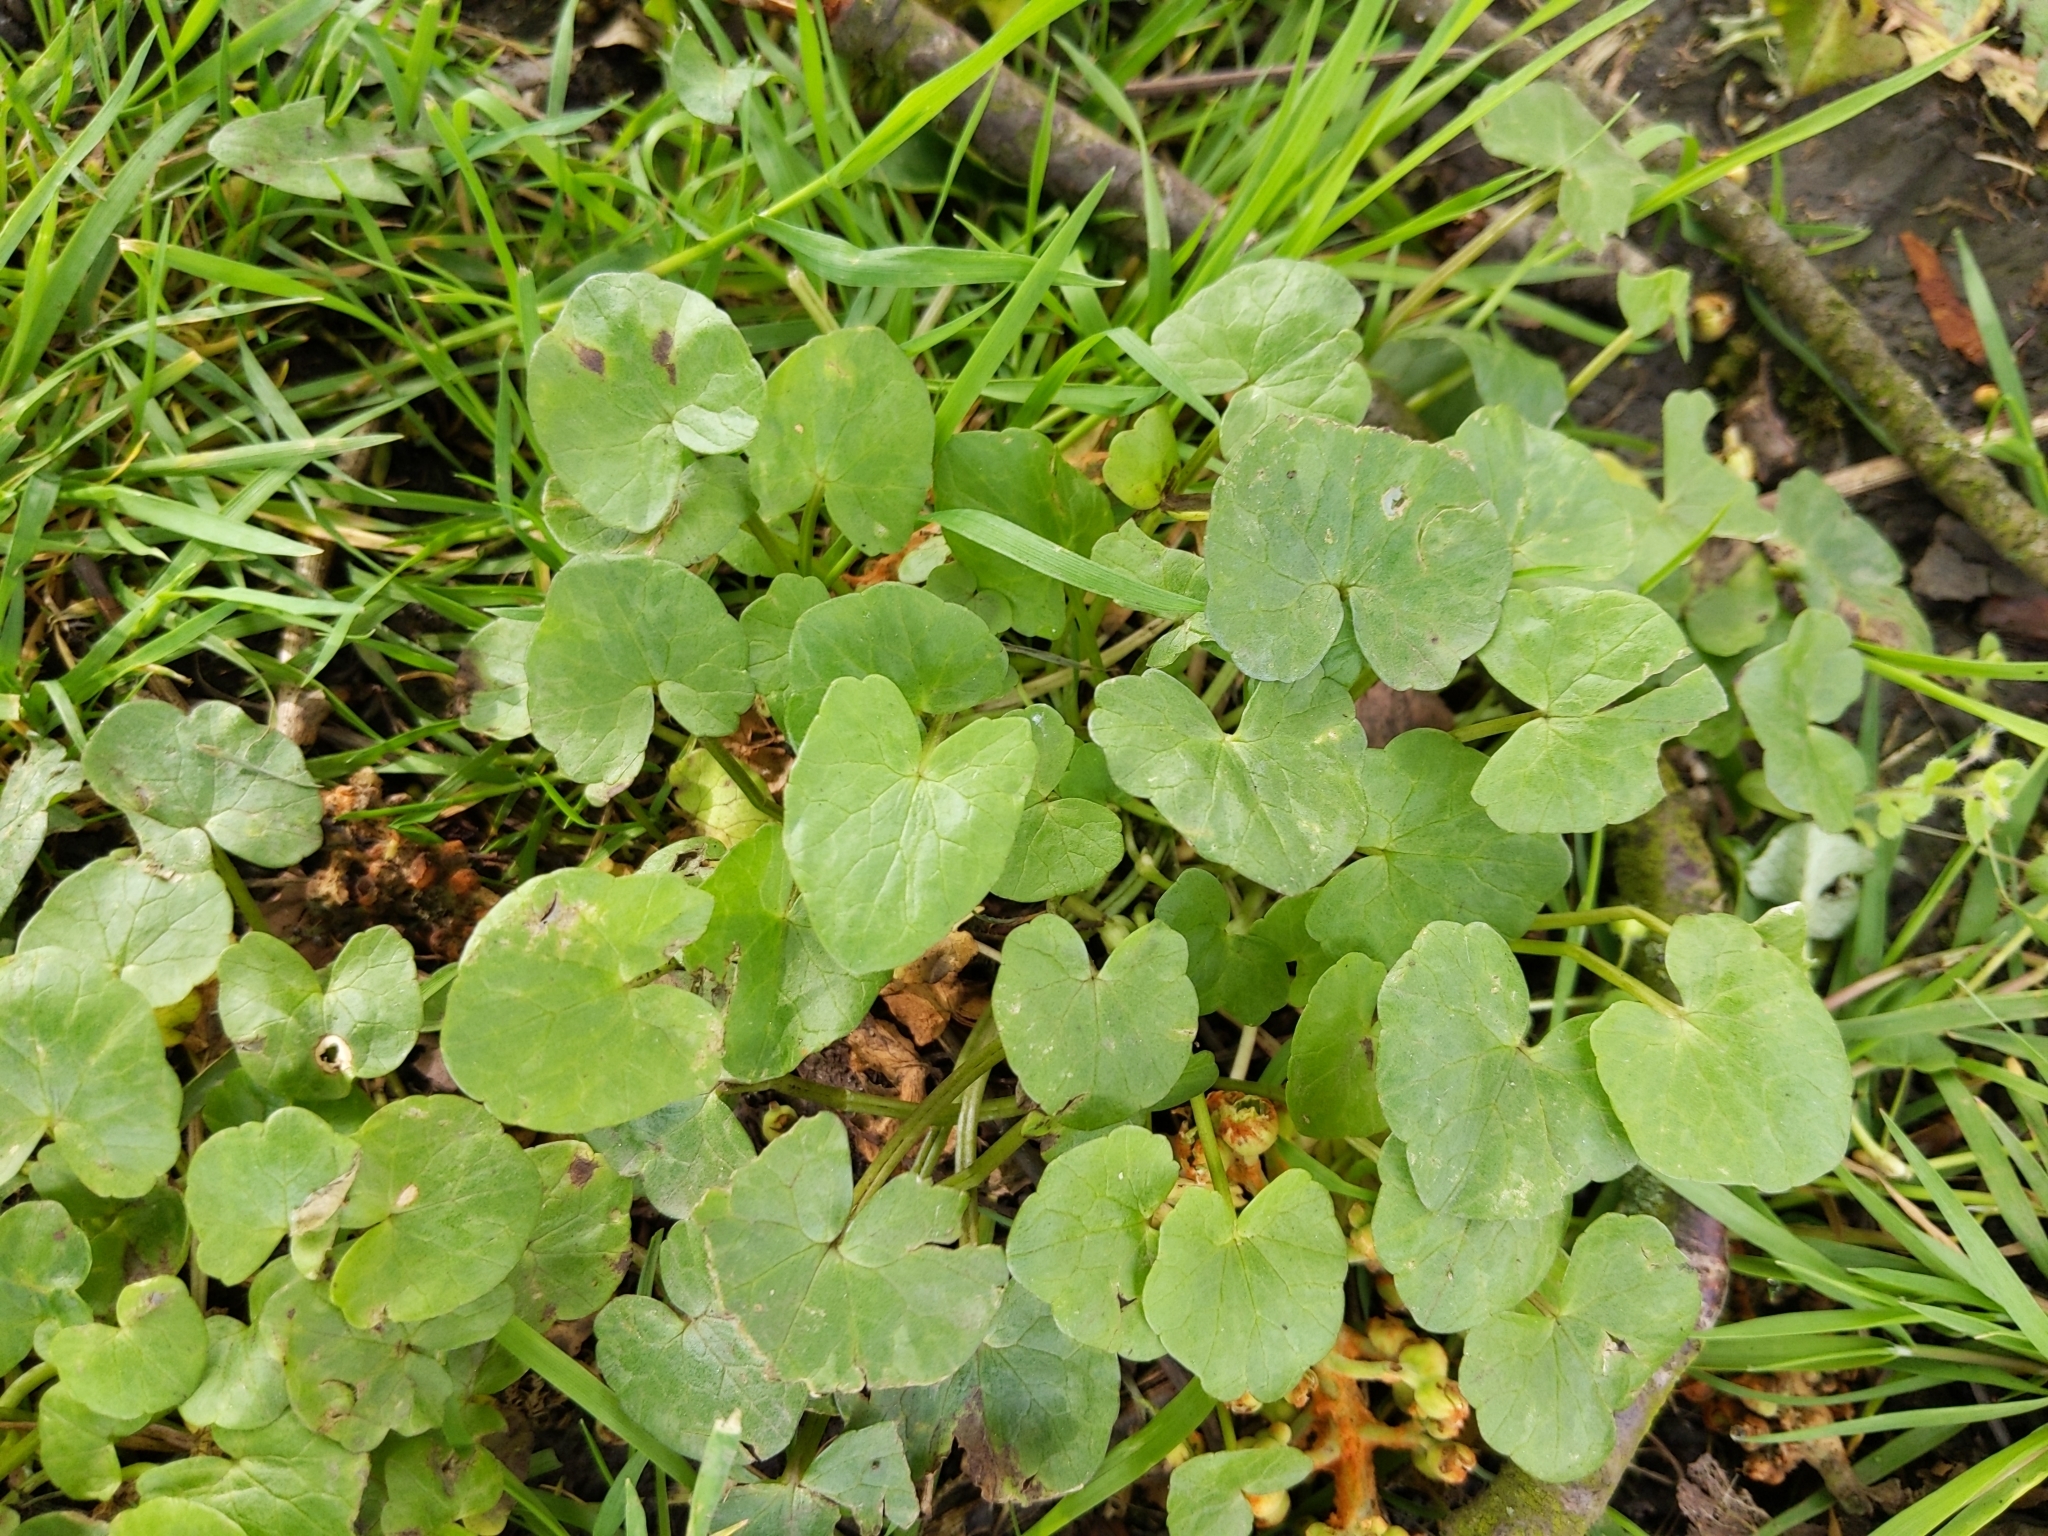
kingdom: Plantae
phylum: Tracheophyta
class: Magnoliopsida
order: Ranunculales
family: Ranunculaceae
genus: Ficaria
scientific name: Ficaria verna
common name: Lesser celandine
